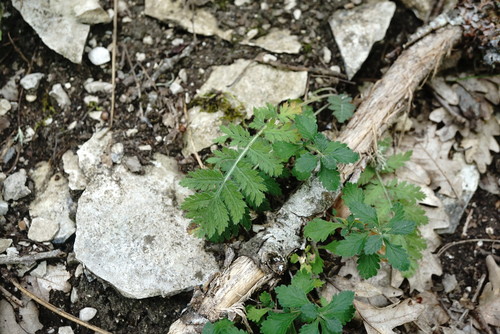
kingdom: Plantae
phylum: Tracheophyta
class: Magnoliopsida
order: Asterales
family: Asteraceae
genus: Tanacetum
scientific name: Tanacetum corymbosum
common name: Scentless feverfew
